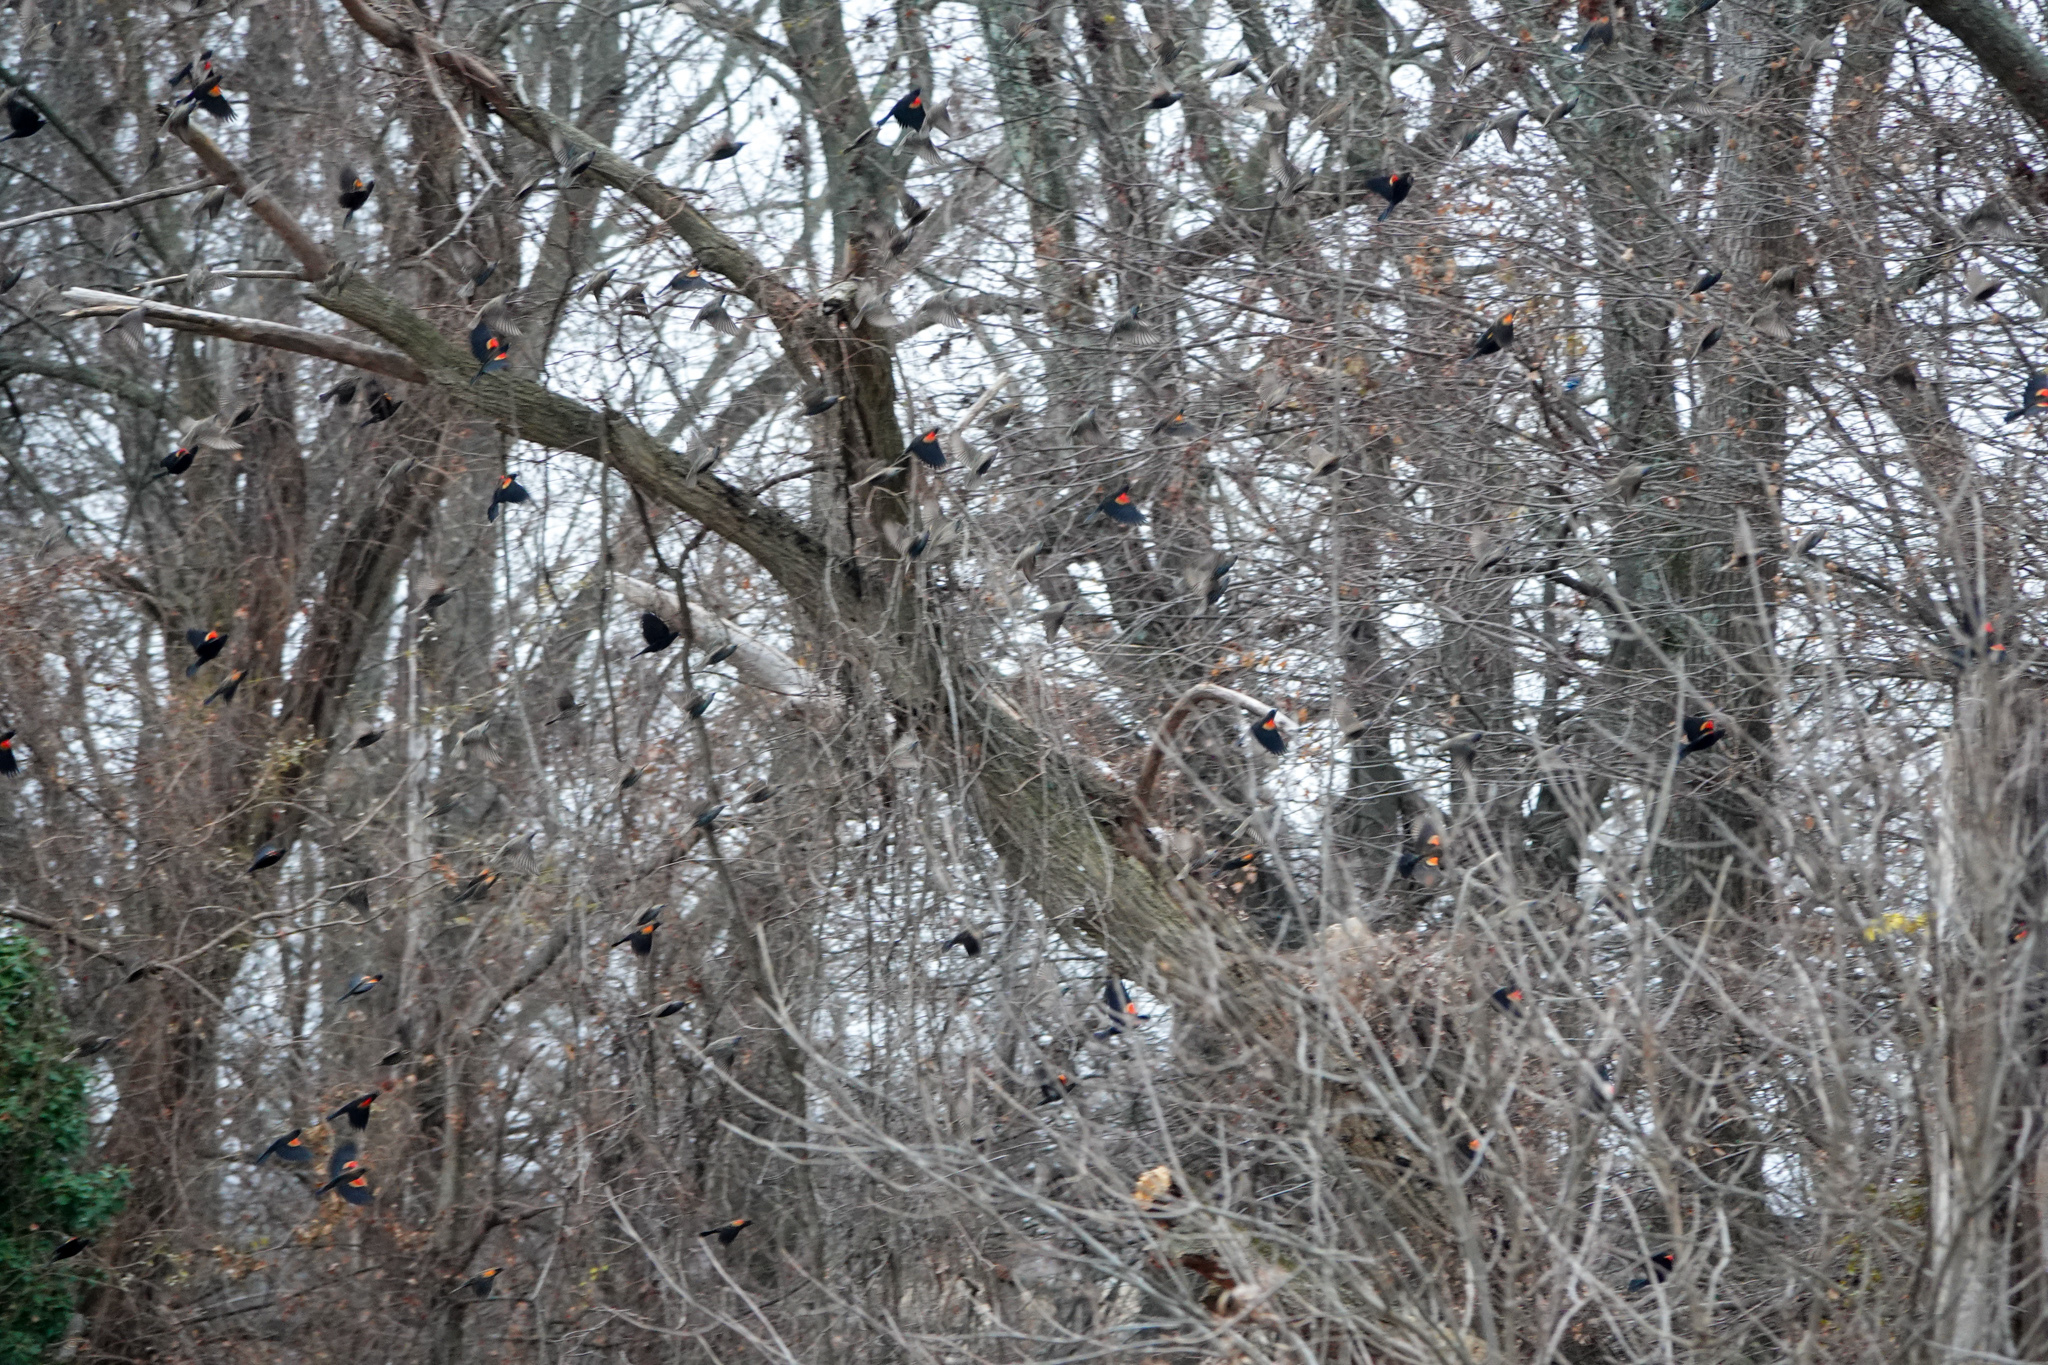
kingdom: Animalia
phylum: Chordata
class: Aves
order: Passeriformes
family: Icteridae
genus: Agelaius
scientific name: Agelaius phoeniceus
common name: Red-winged blackbird
